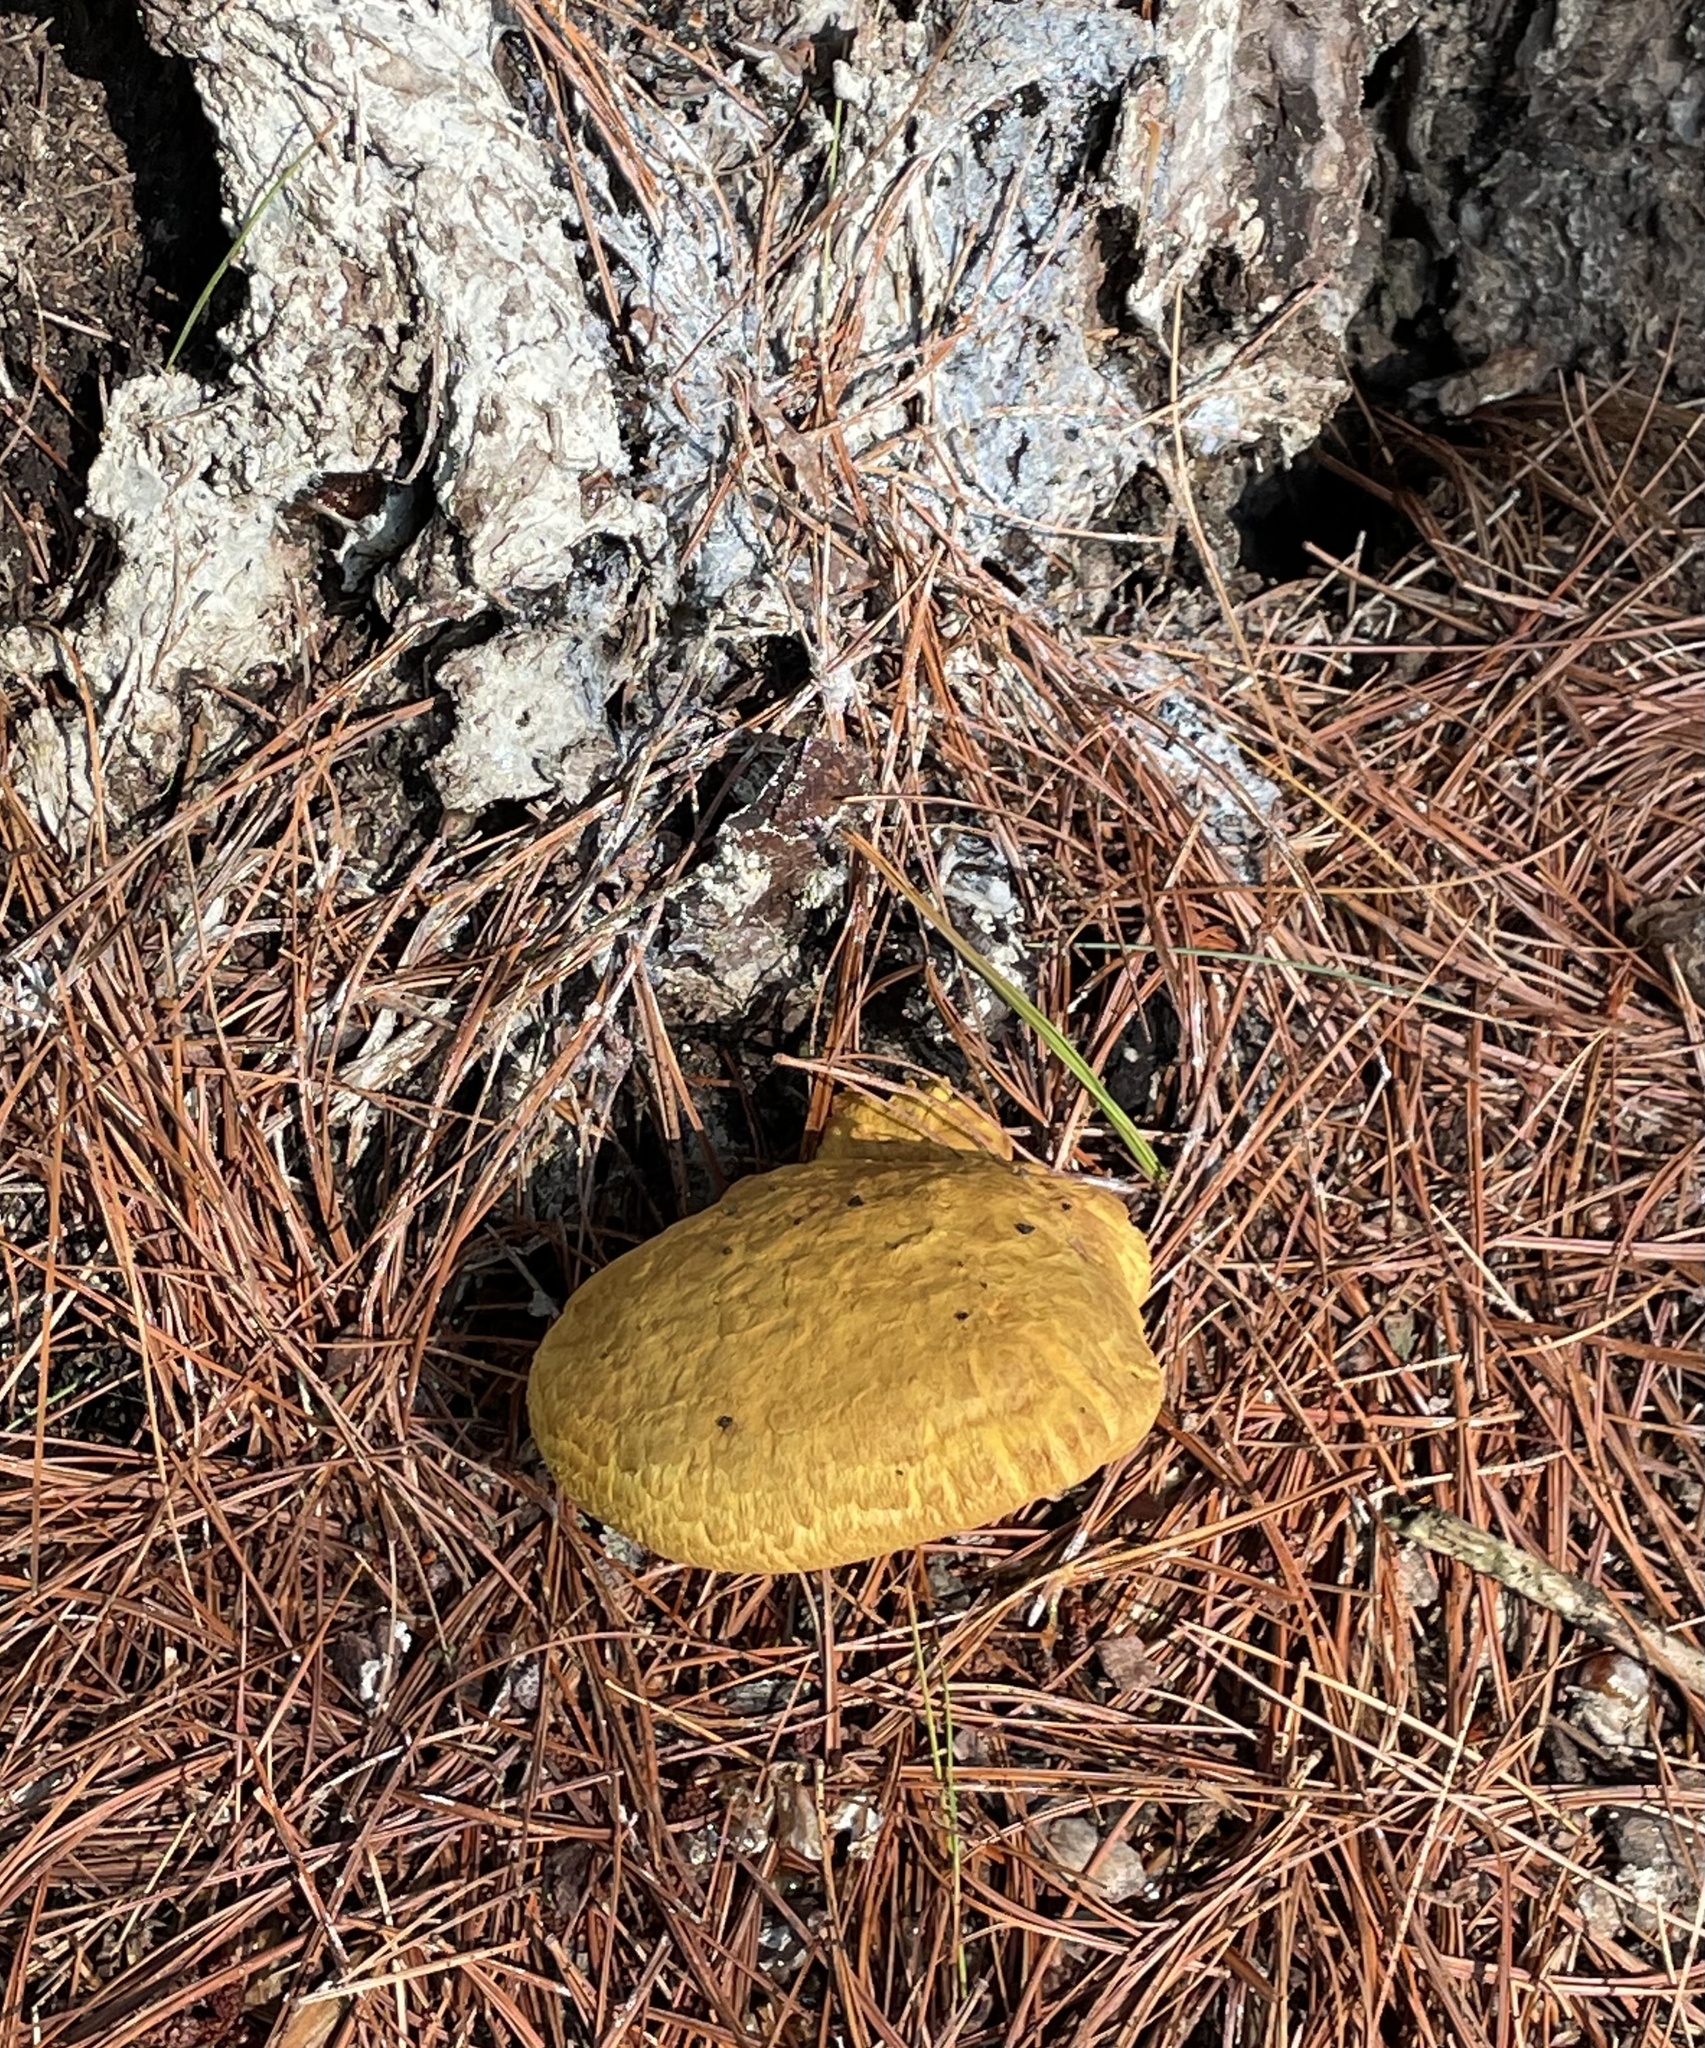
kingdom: Fungi
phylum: Basidiomycota
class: Agaricomycetes
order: Boletales
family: Boletaceae
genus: Buchwaldoboletus
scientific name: Buchwaldoboletus lignicola
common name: Wood bolete
